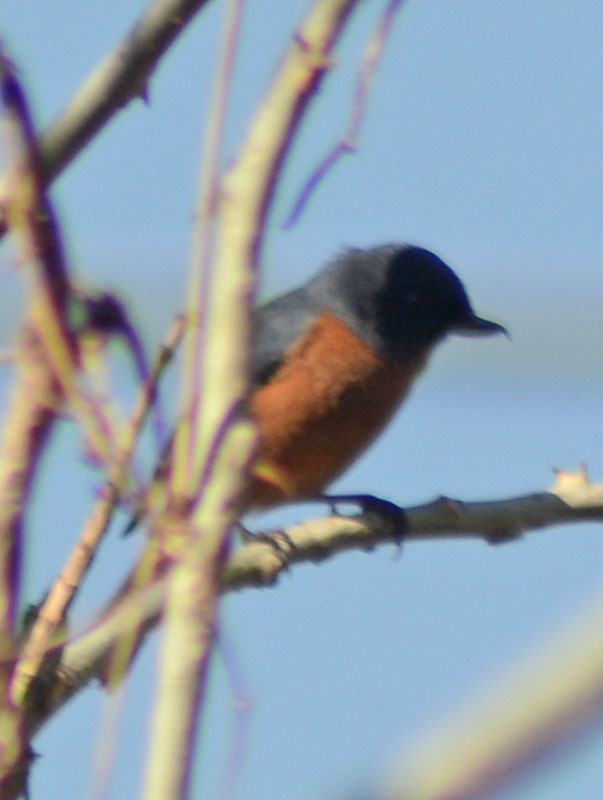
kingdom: Animalia
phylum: Chordata
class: Aves
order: Passeriformes
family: Thraupidae
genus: Diglossa
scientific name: Diglossa baritula
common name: Cinnamon-bellied flowerpiercer
